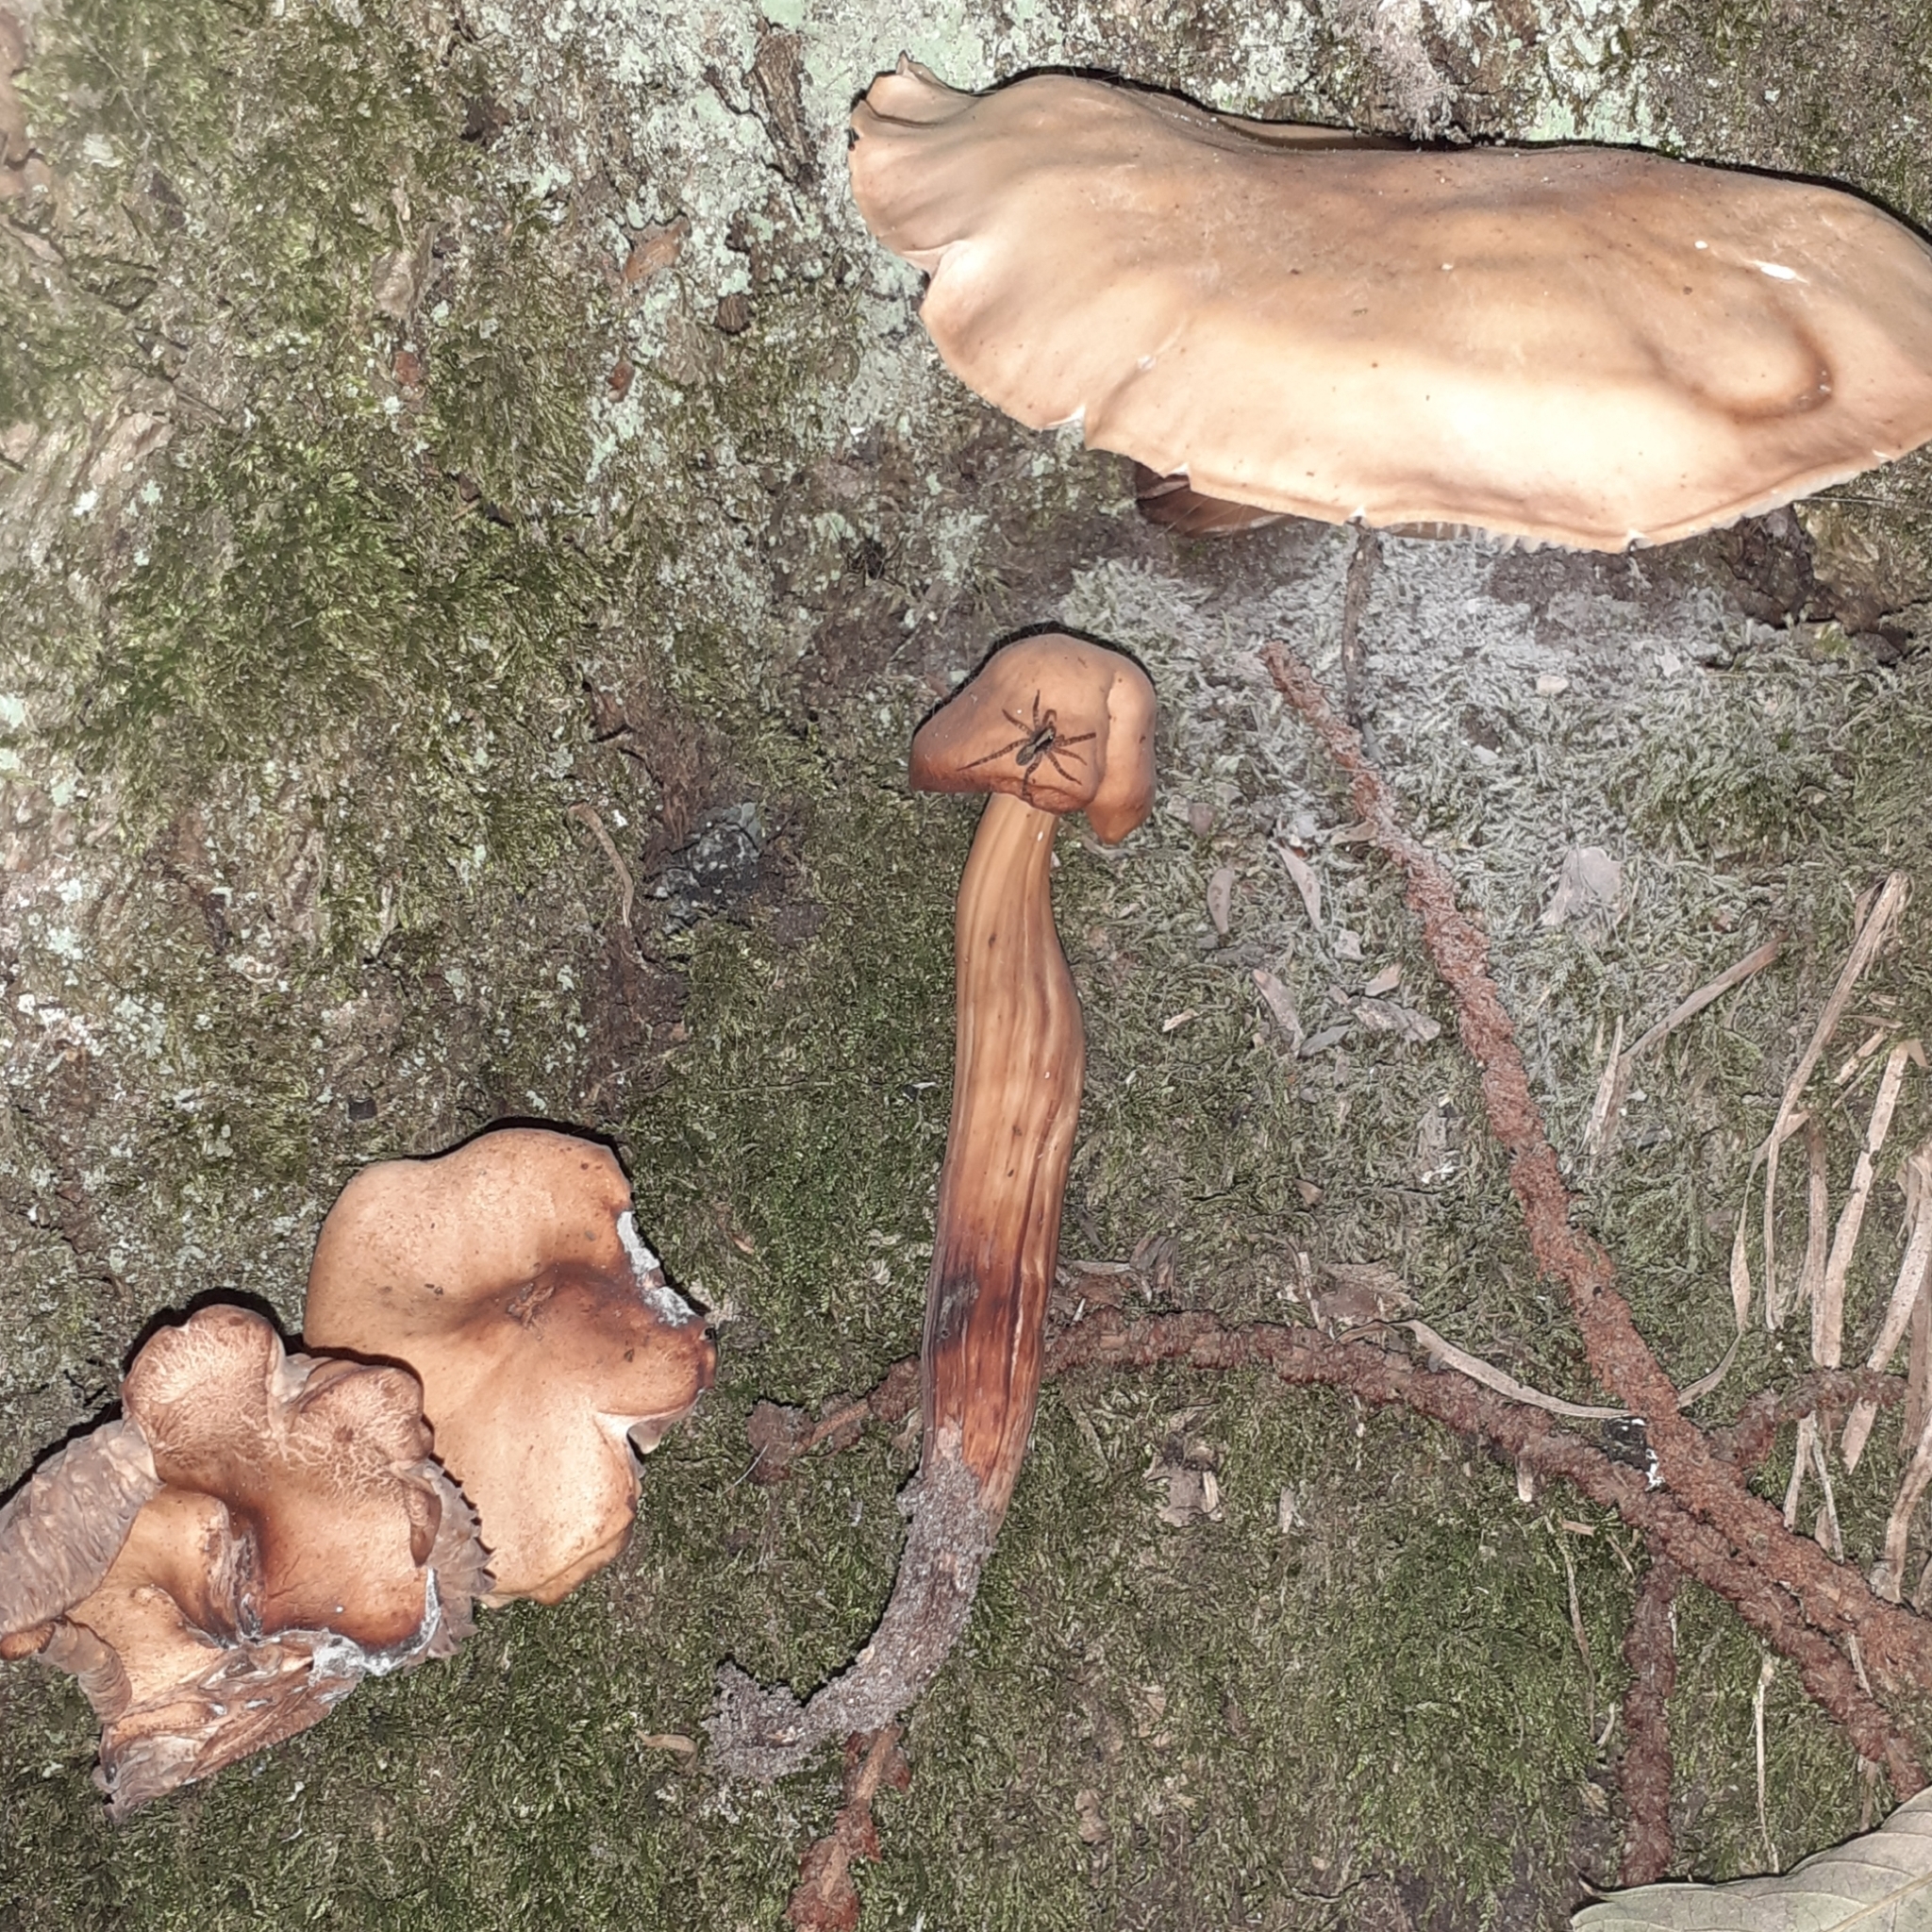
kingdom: Fungi
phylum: Basidiomycota
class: Agaricomycetes
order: Agaricales
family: Omphalotaceae
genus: Gymnopus
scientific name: Gymnopus fusipes
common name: Spindle shank
